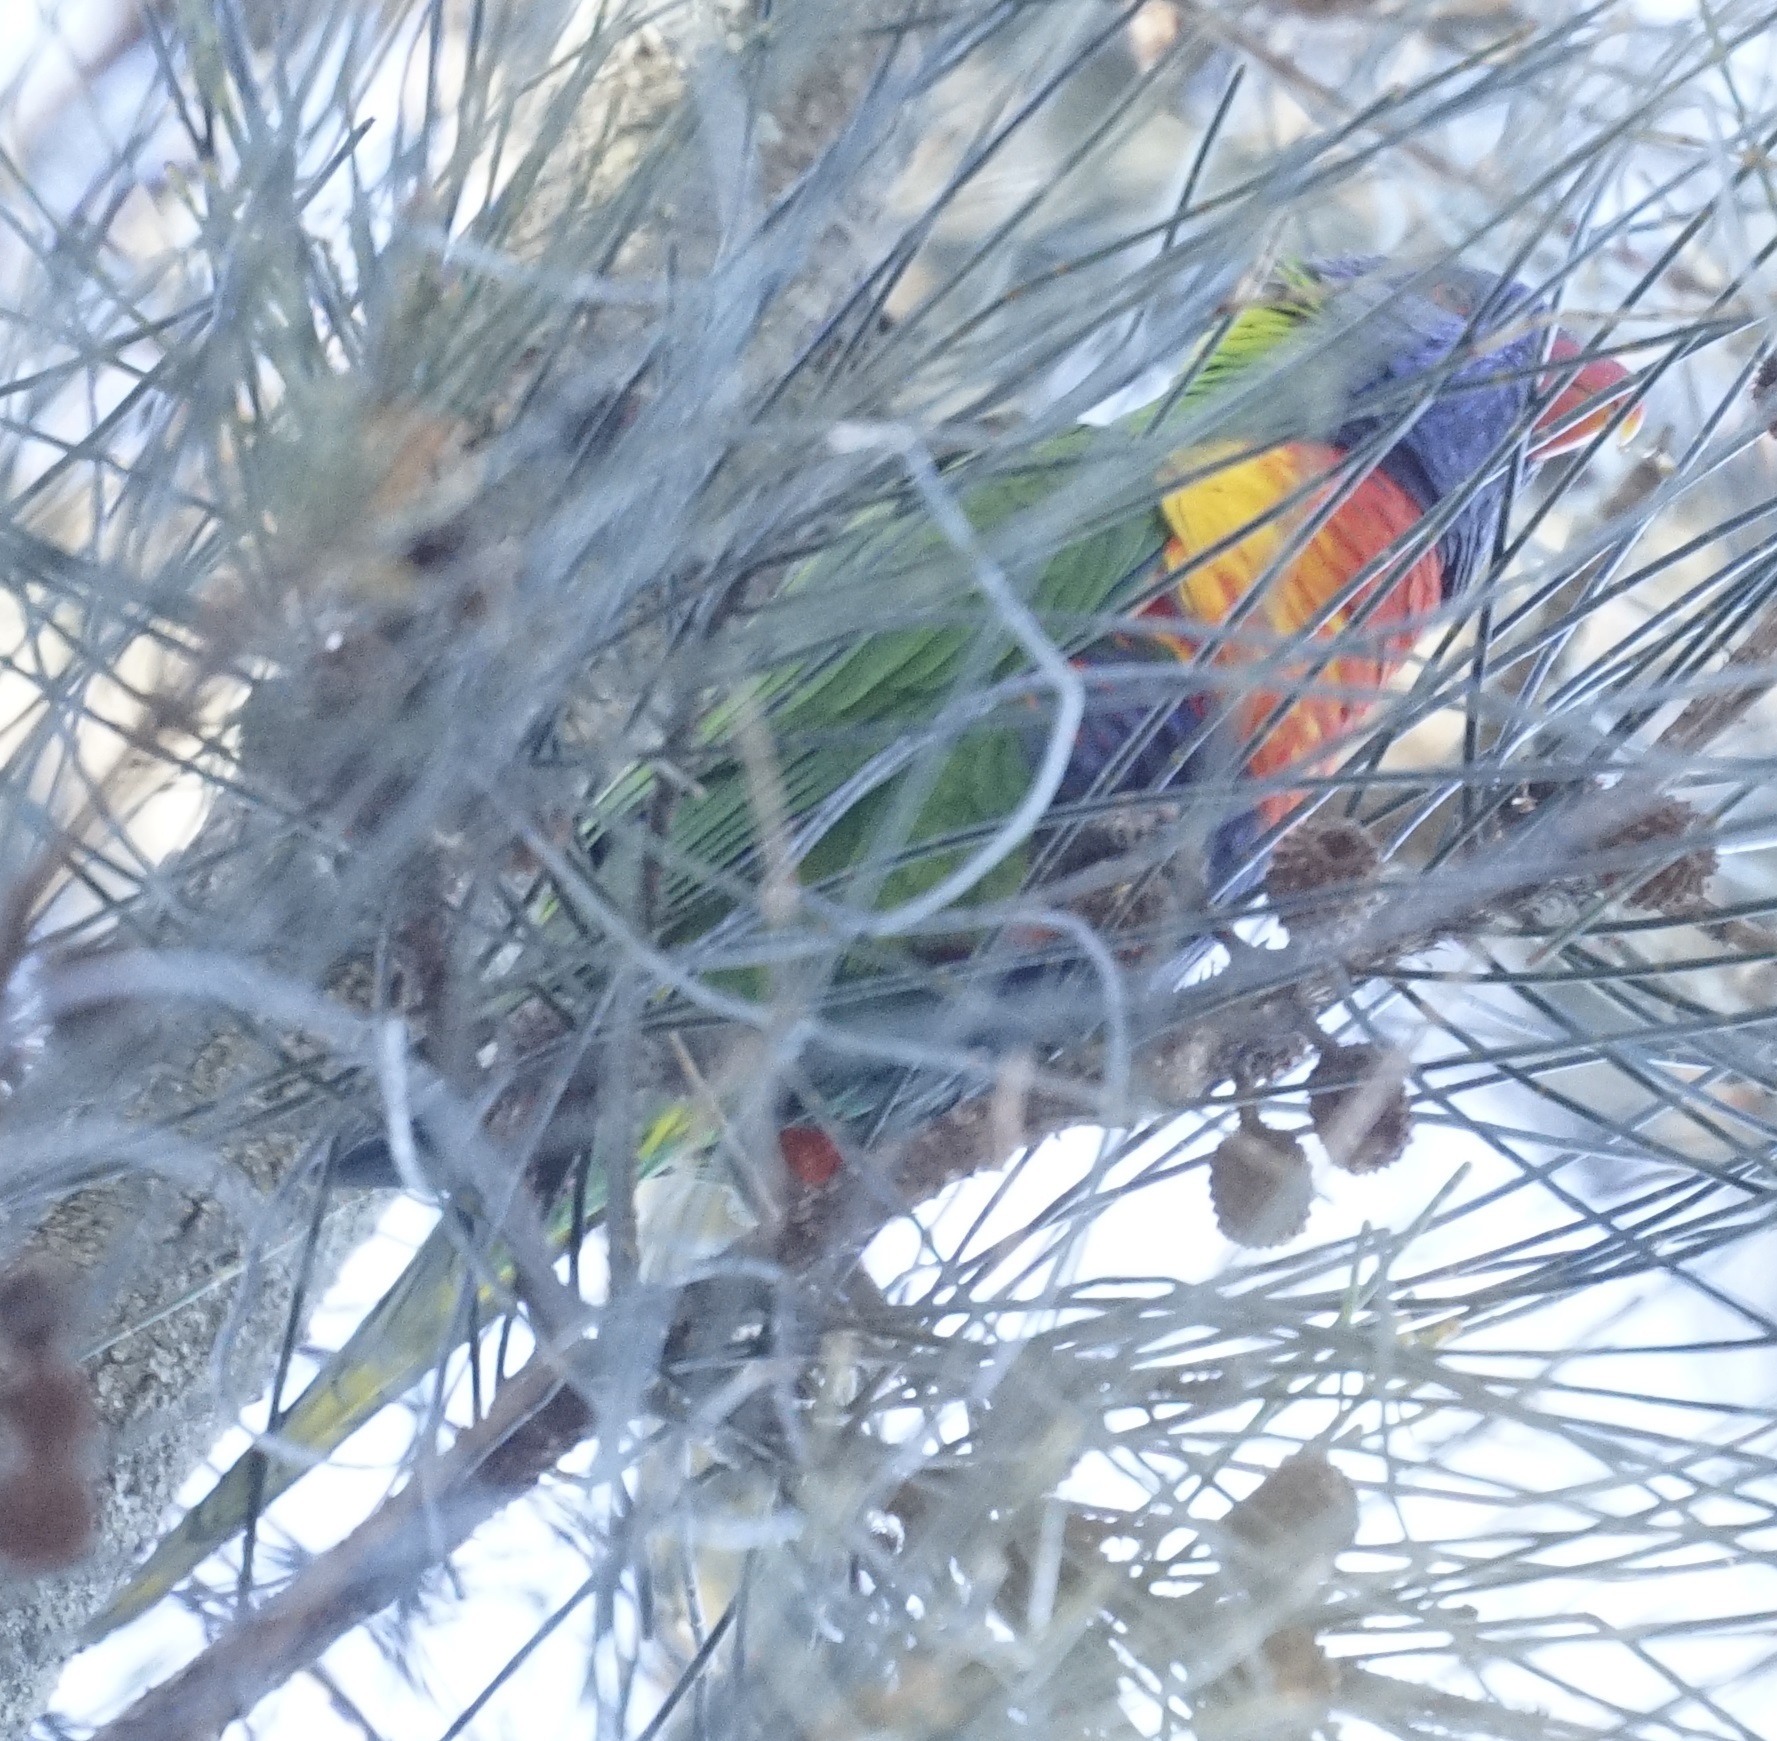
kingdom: Animalia
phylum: Chordata
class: Aves
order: Psittaciformes
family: Psittacidae
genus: Trichoglossus
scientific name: Trichoglossus haematodus
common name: Coconut lorikeet
